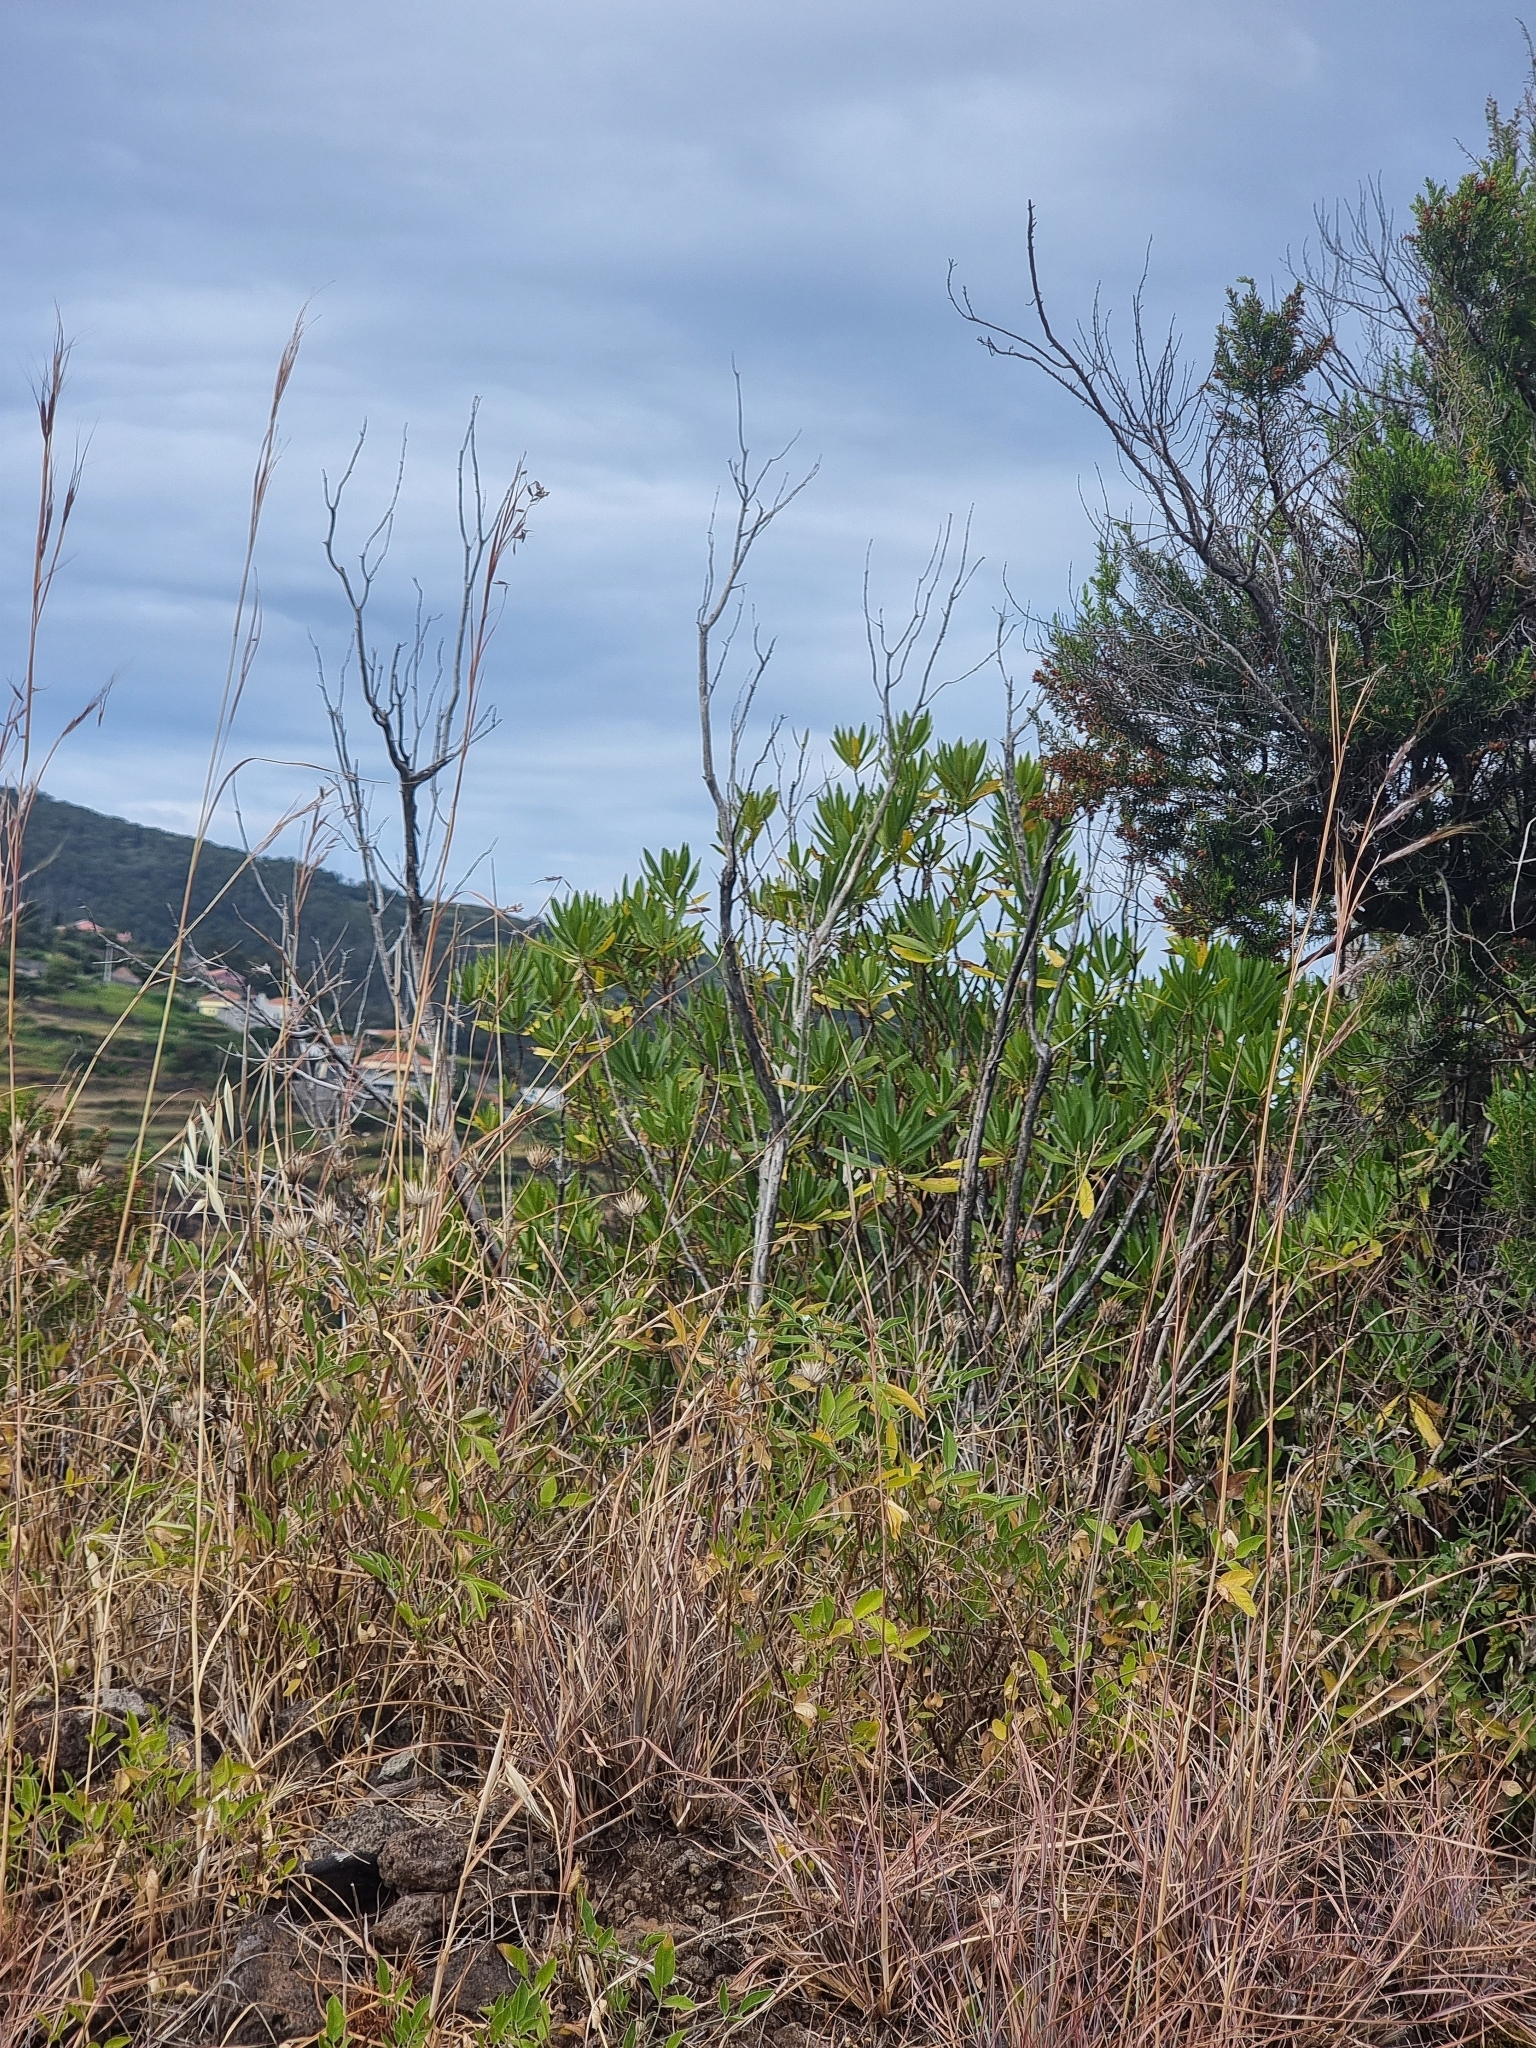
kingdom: Plantae
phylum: Tracheophyta
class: Magnoliopsida
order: Lamiales
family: Plantaginaceae
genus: Globularia
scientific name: Globularia salicina
